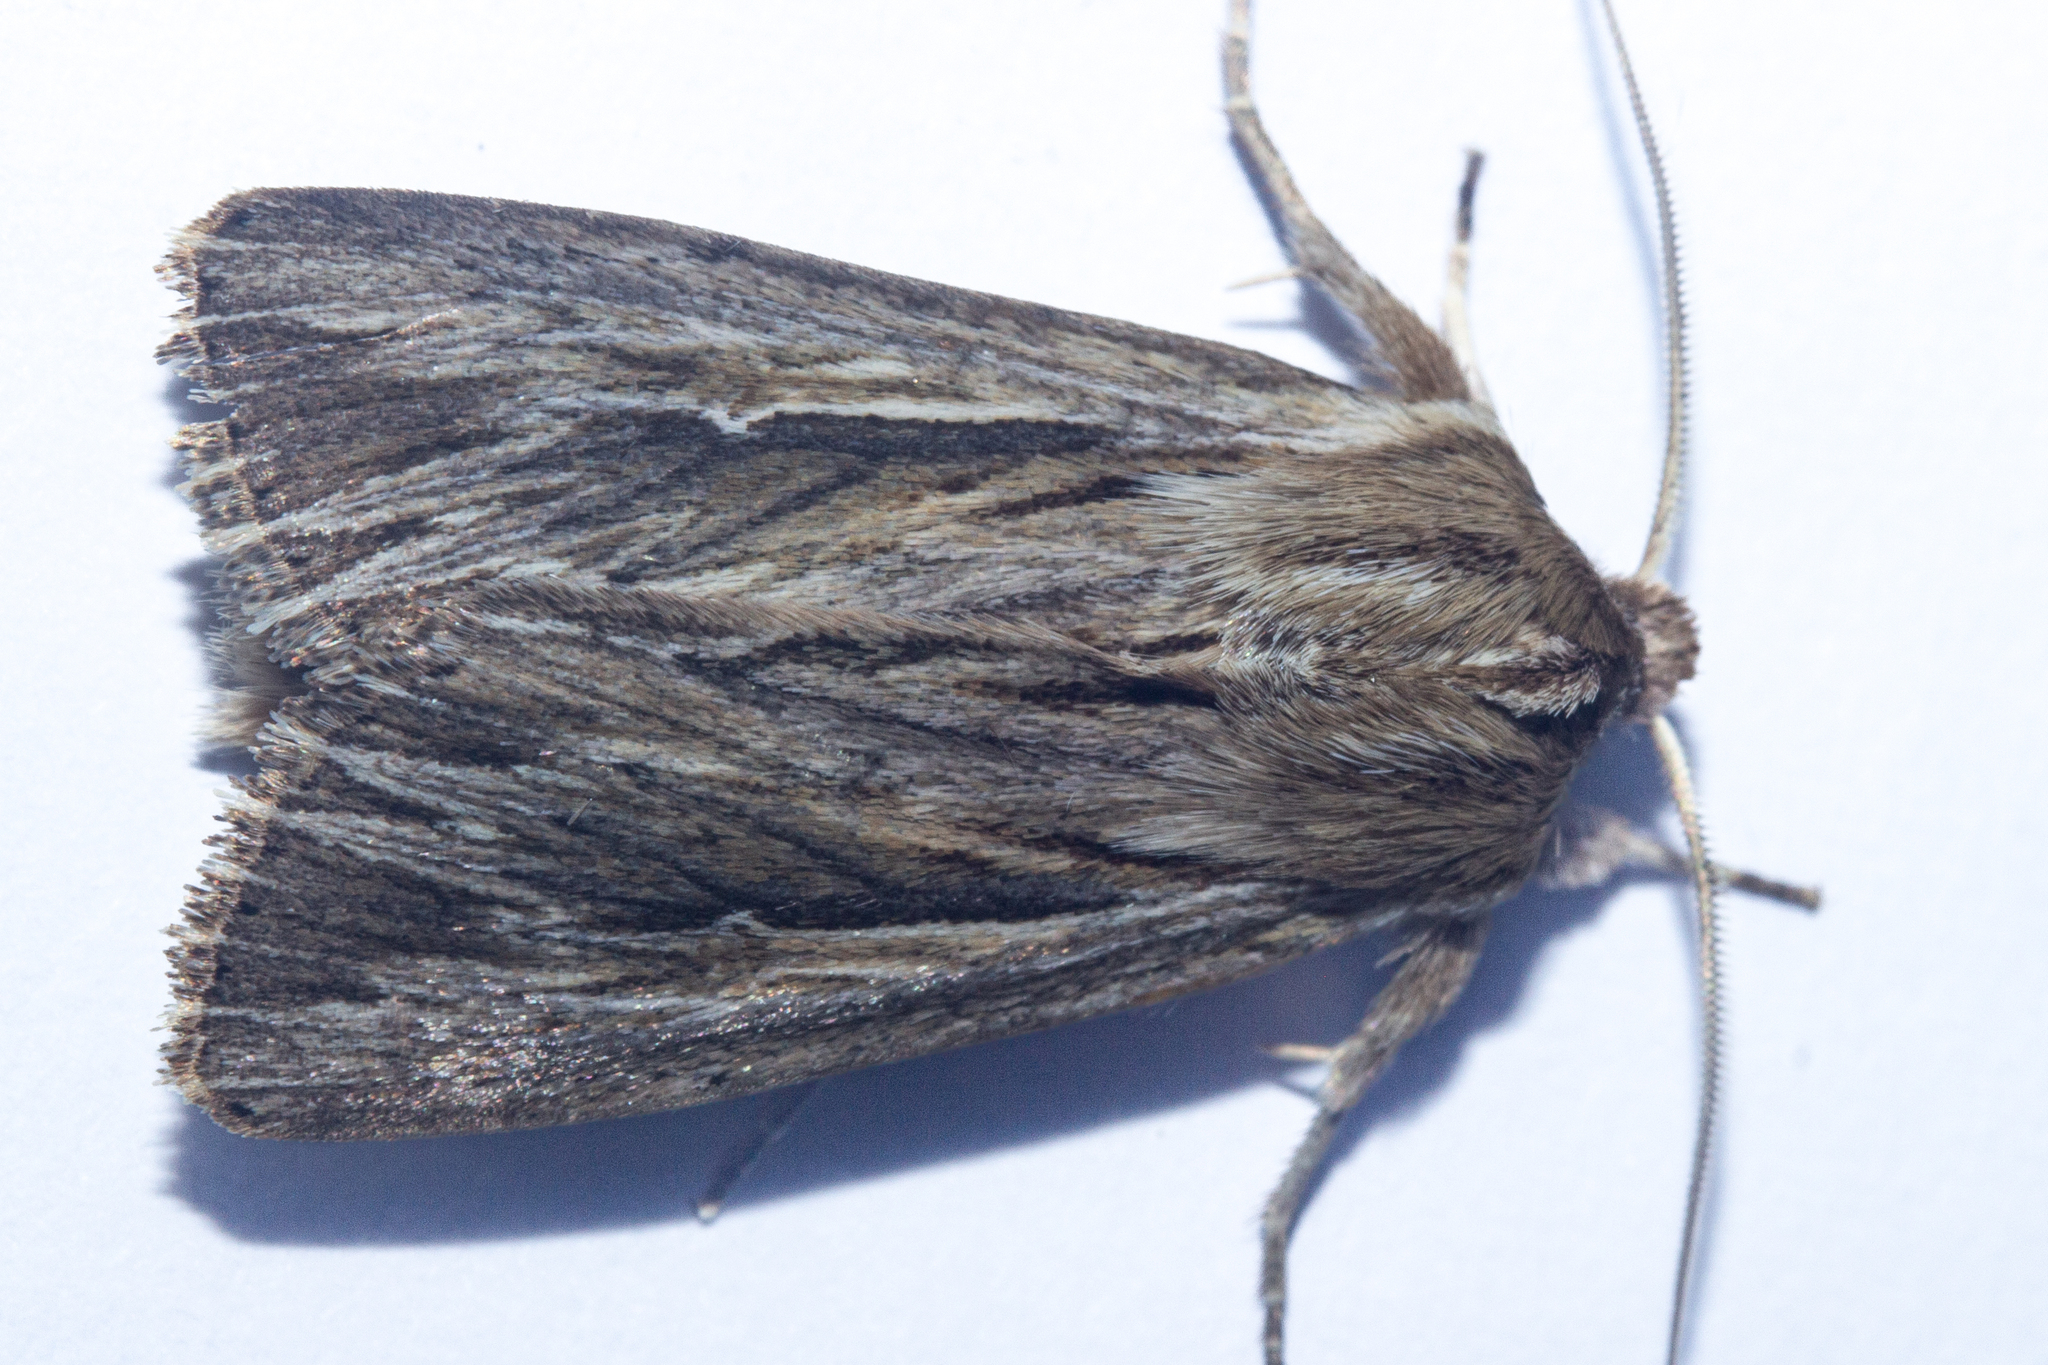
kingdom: Animalia
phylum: Arthropoda
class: Insecta
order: Lepidoptera
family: Noctuidae
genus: Persectania
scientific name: Persectania aversa
